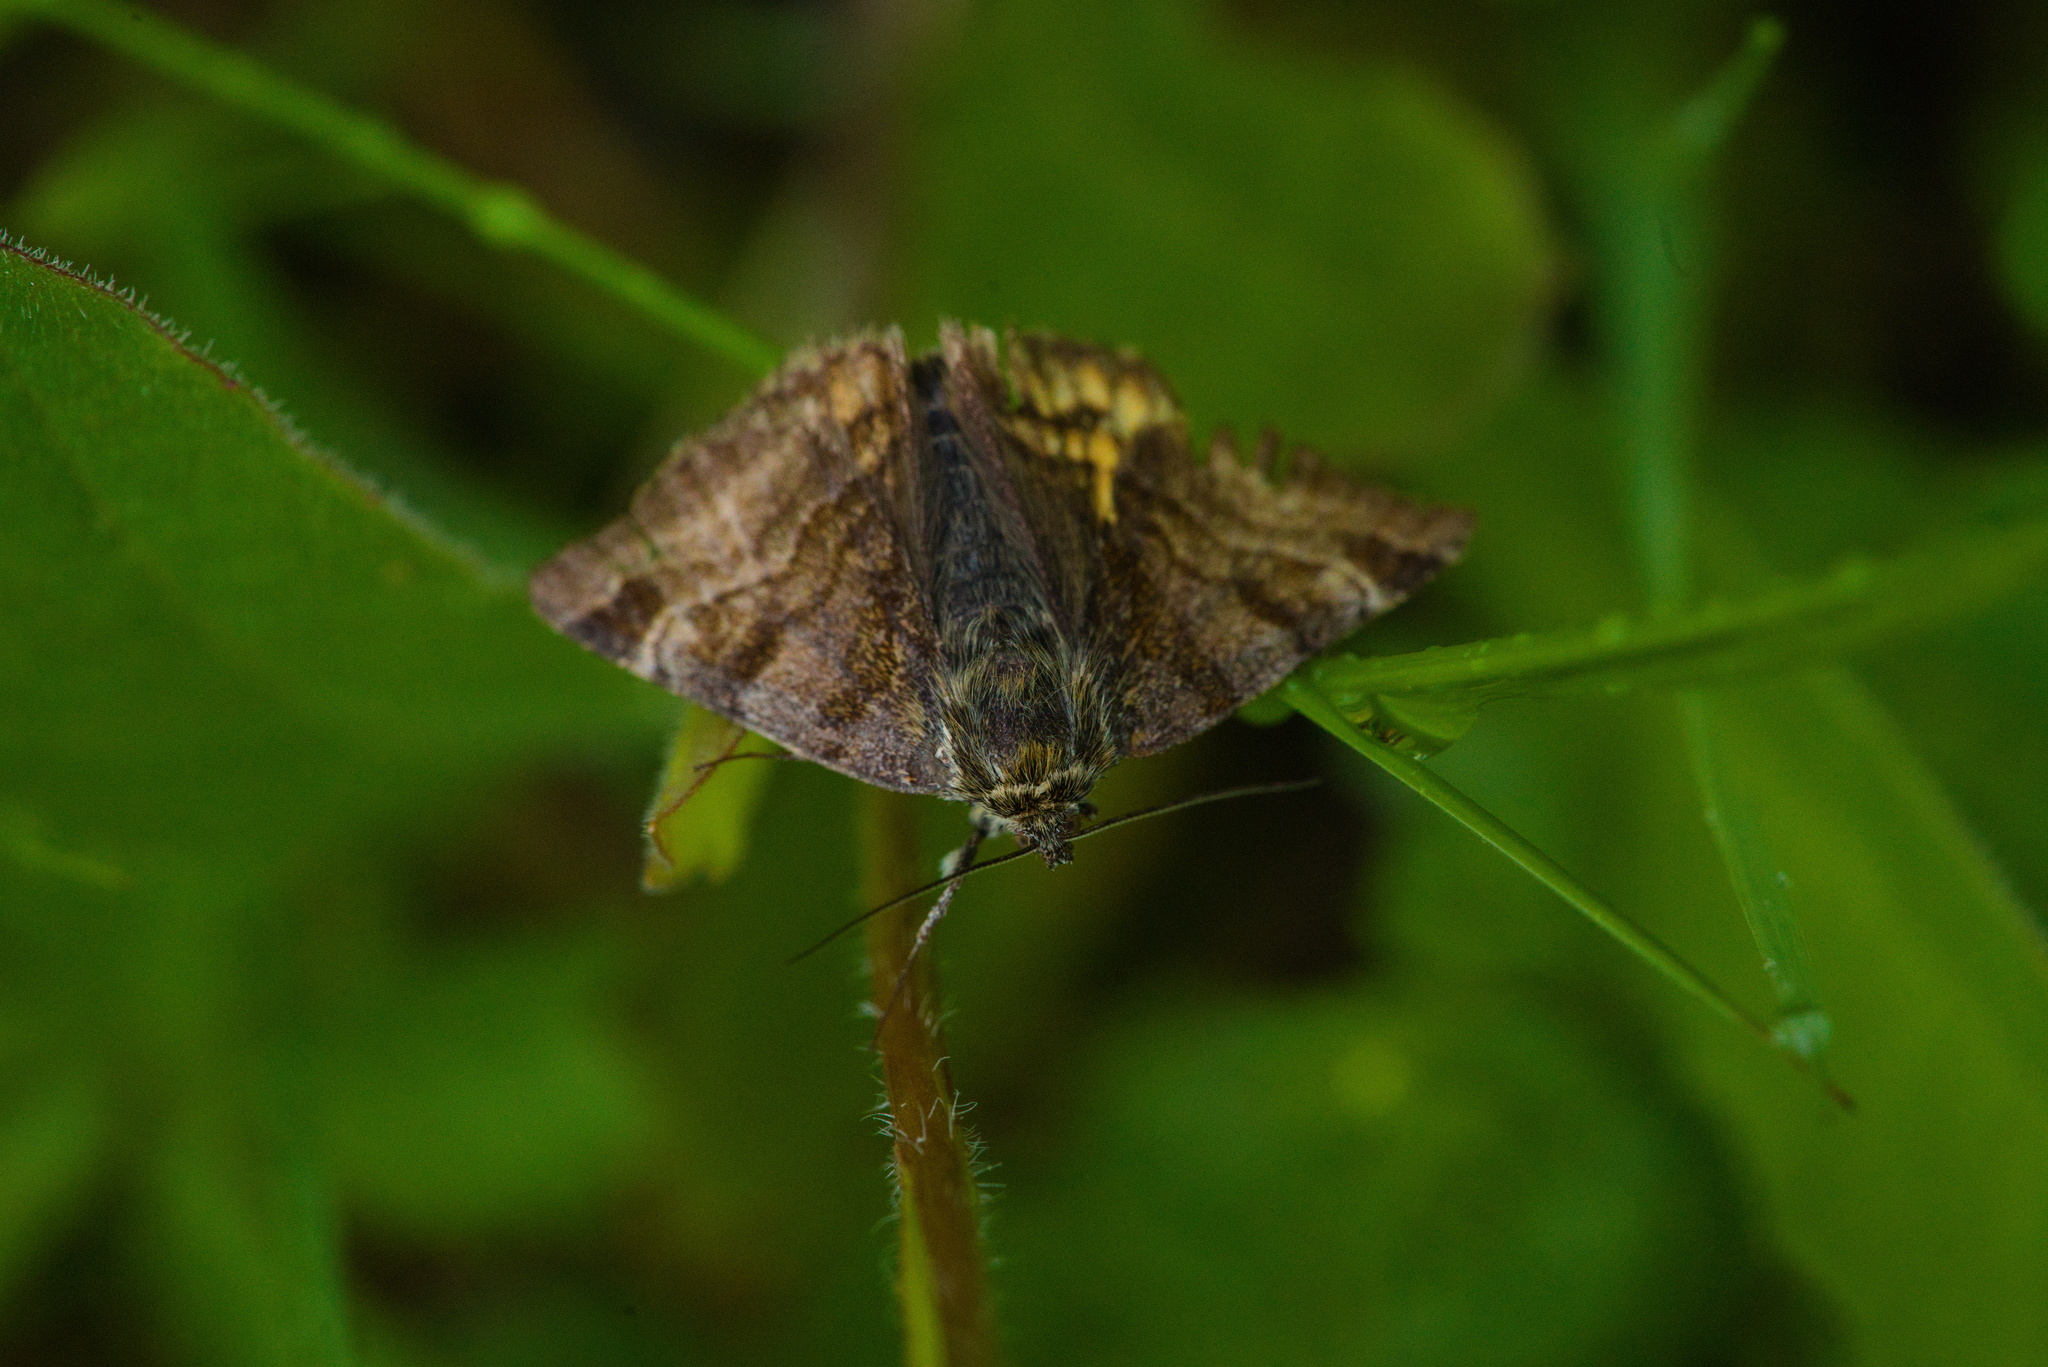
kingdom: Animalia
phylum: Arthropoda
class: Insecta
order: Lepidoptera
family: Erebidae
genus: Euclidia
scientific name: Euclidia glyphica
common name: Burnet companion
